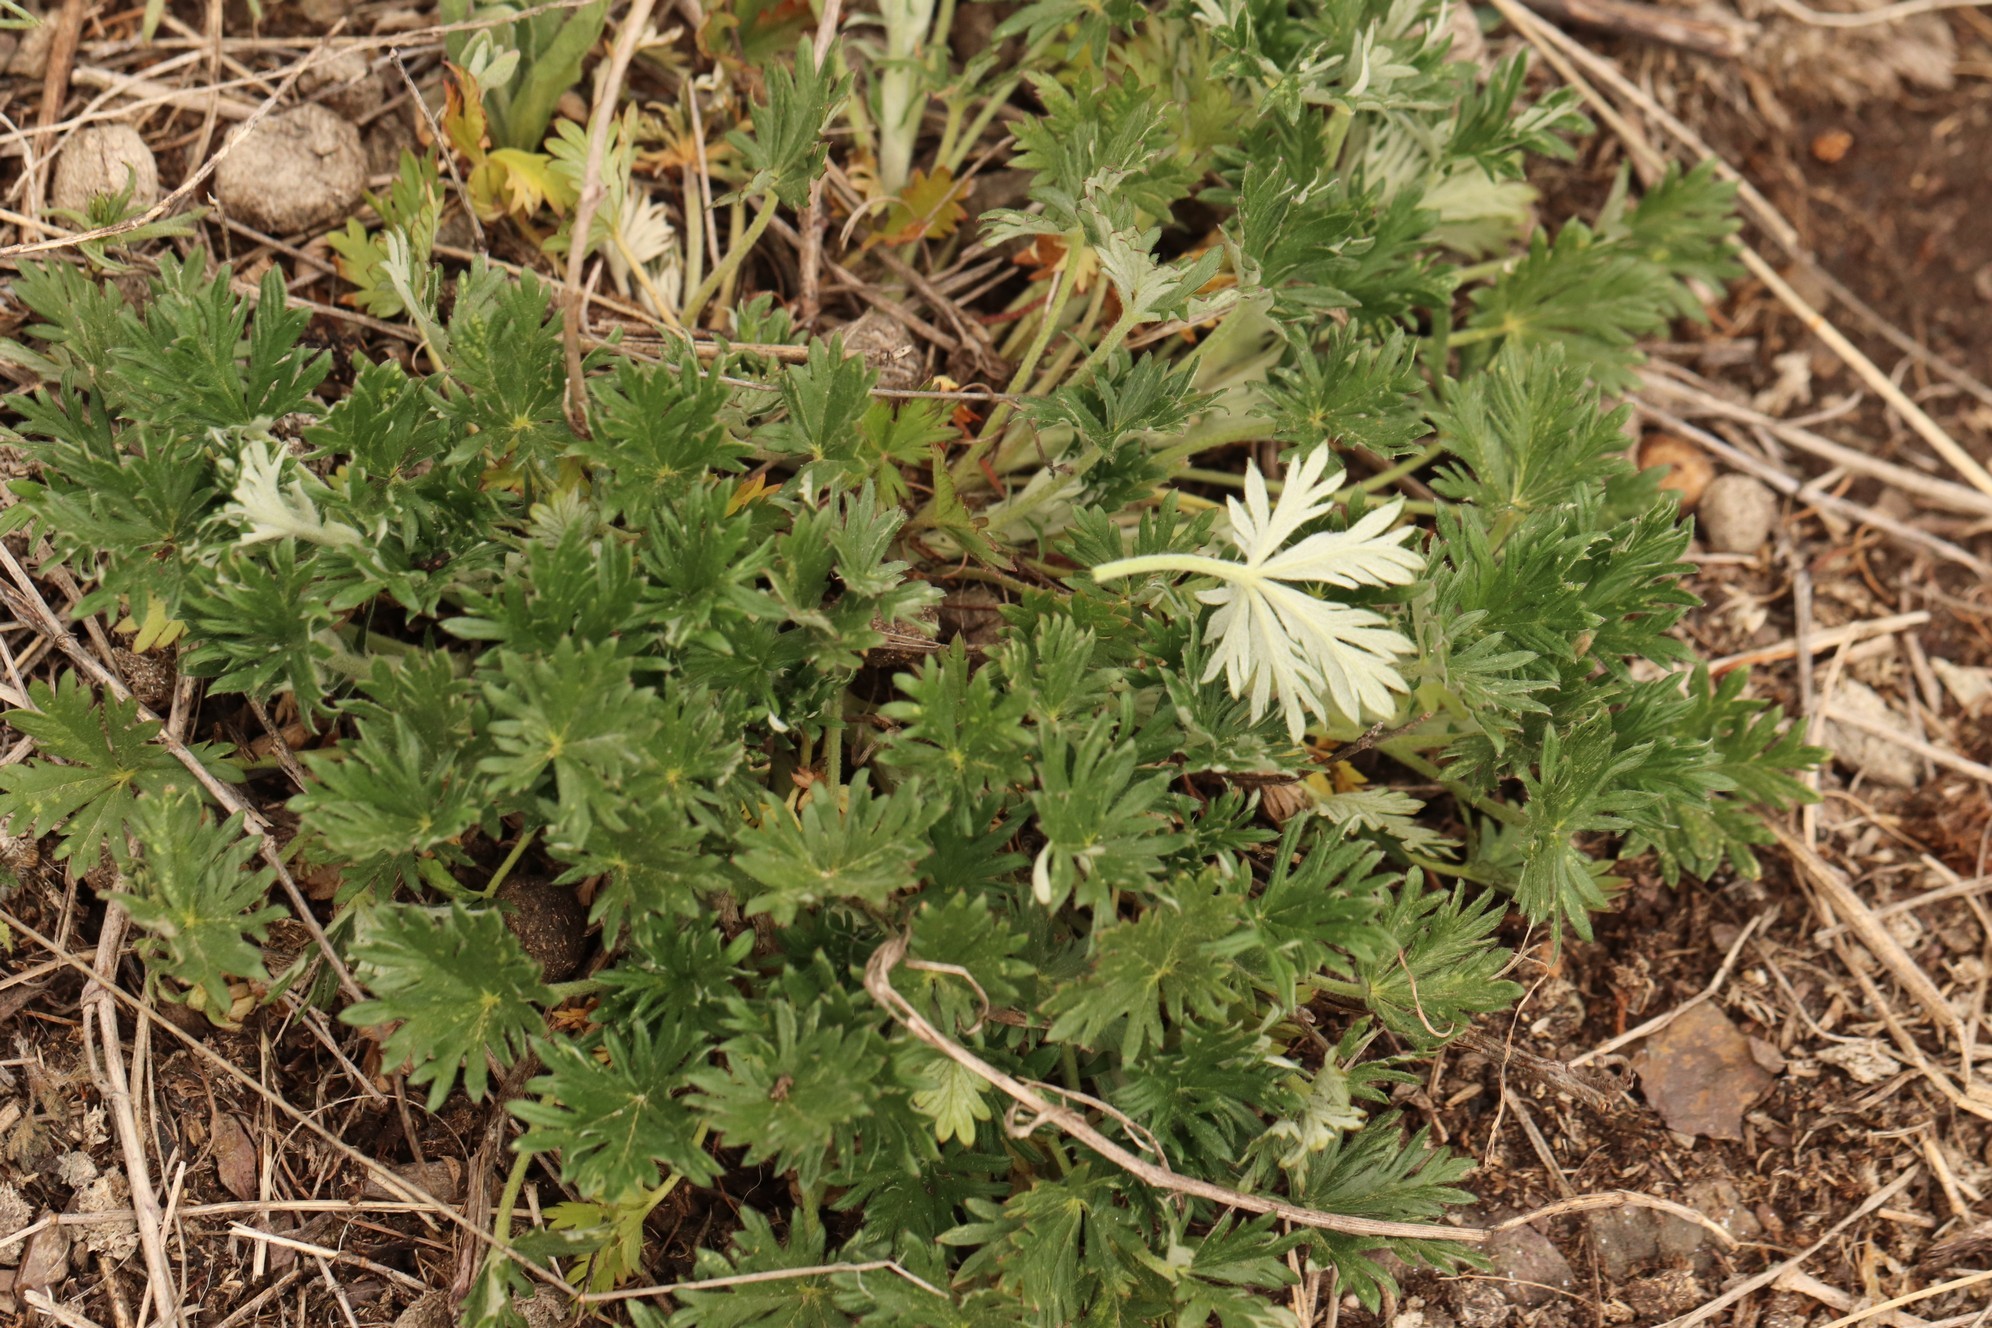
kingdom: Plantae
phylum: Tracheophyta
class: Magnoliopsida
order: Rosales
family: Rosaceae
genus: Potentilla
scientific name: Potentilla argentea
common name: Hoary cinquefoil
